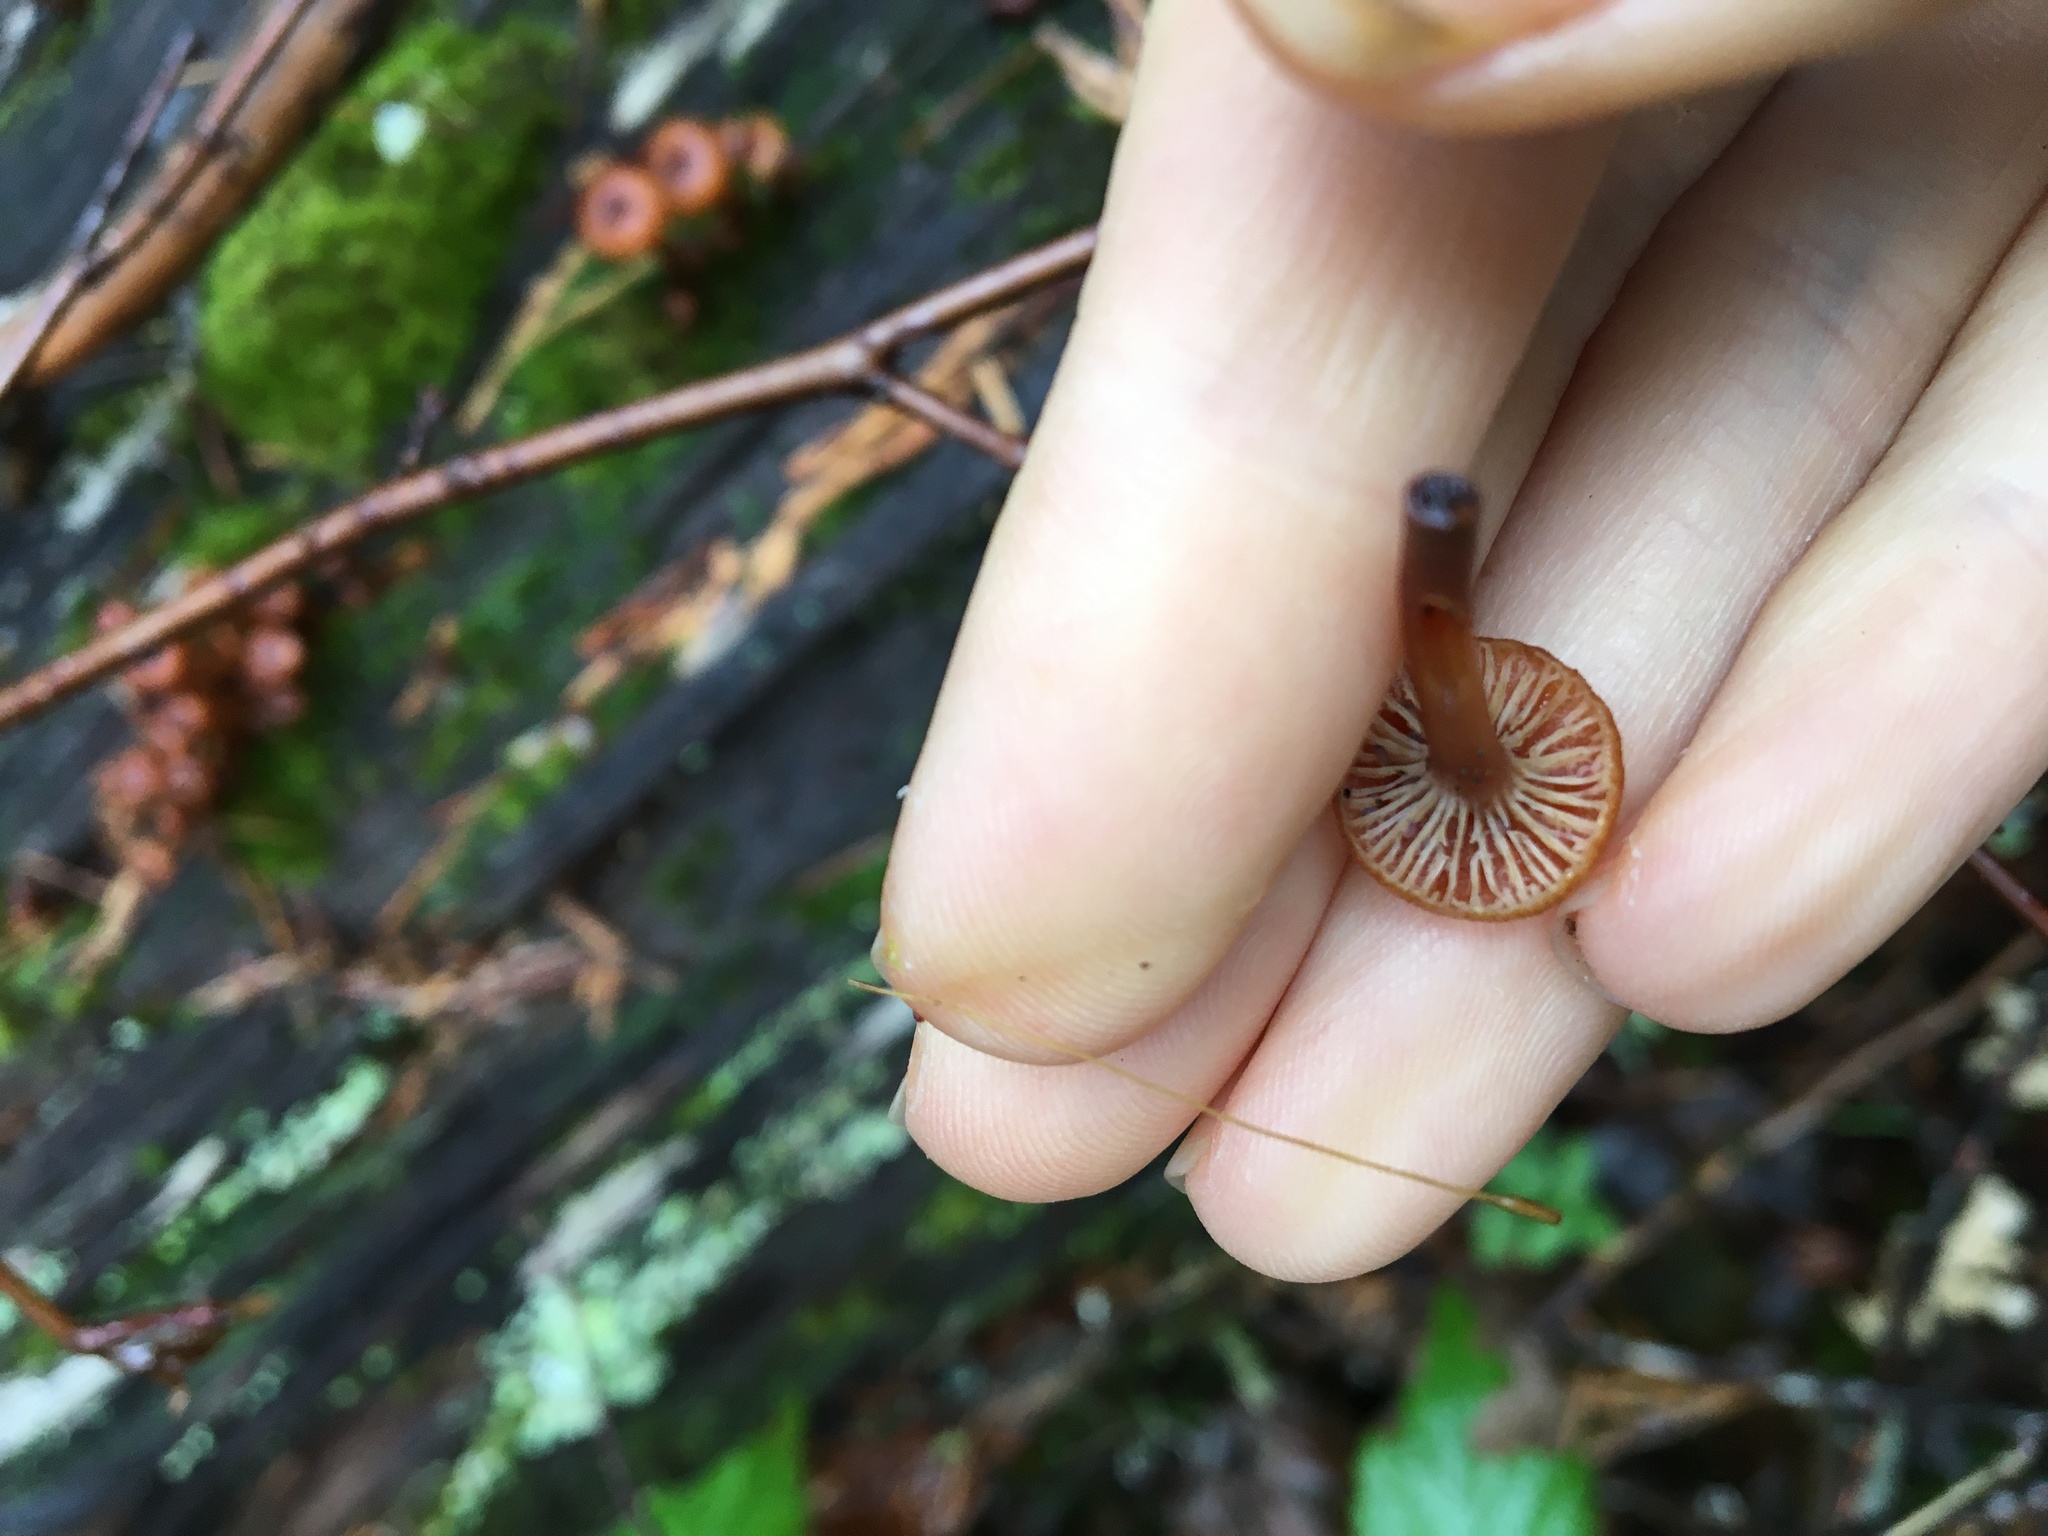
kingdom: Fungi
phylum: Basidiomycota
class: Agaricomycetes
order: Agaricales
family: Mycenaceae
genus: Xeromphalina
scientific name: Xeromphalina campanella
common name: Pinewood gingertail
